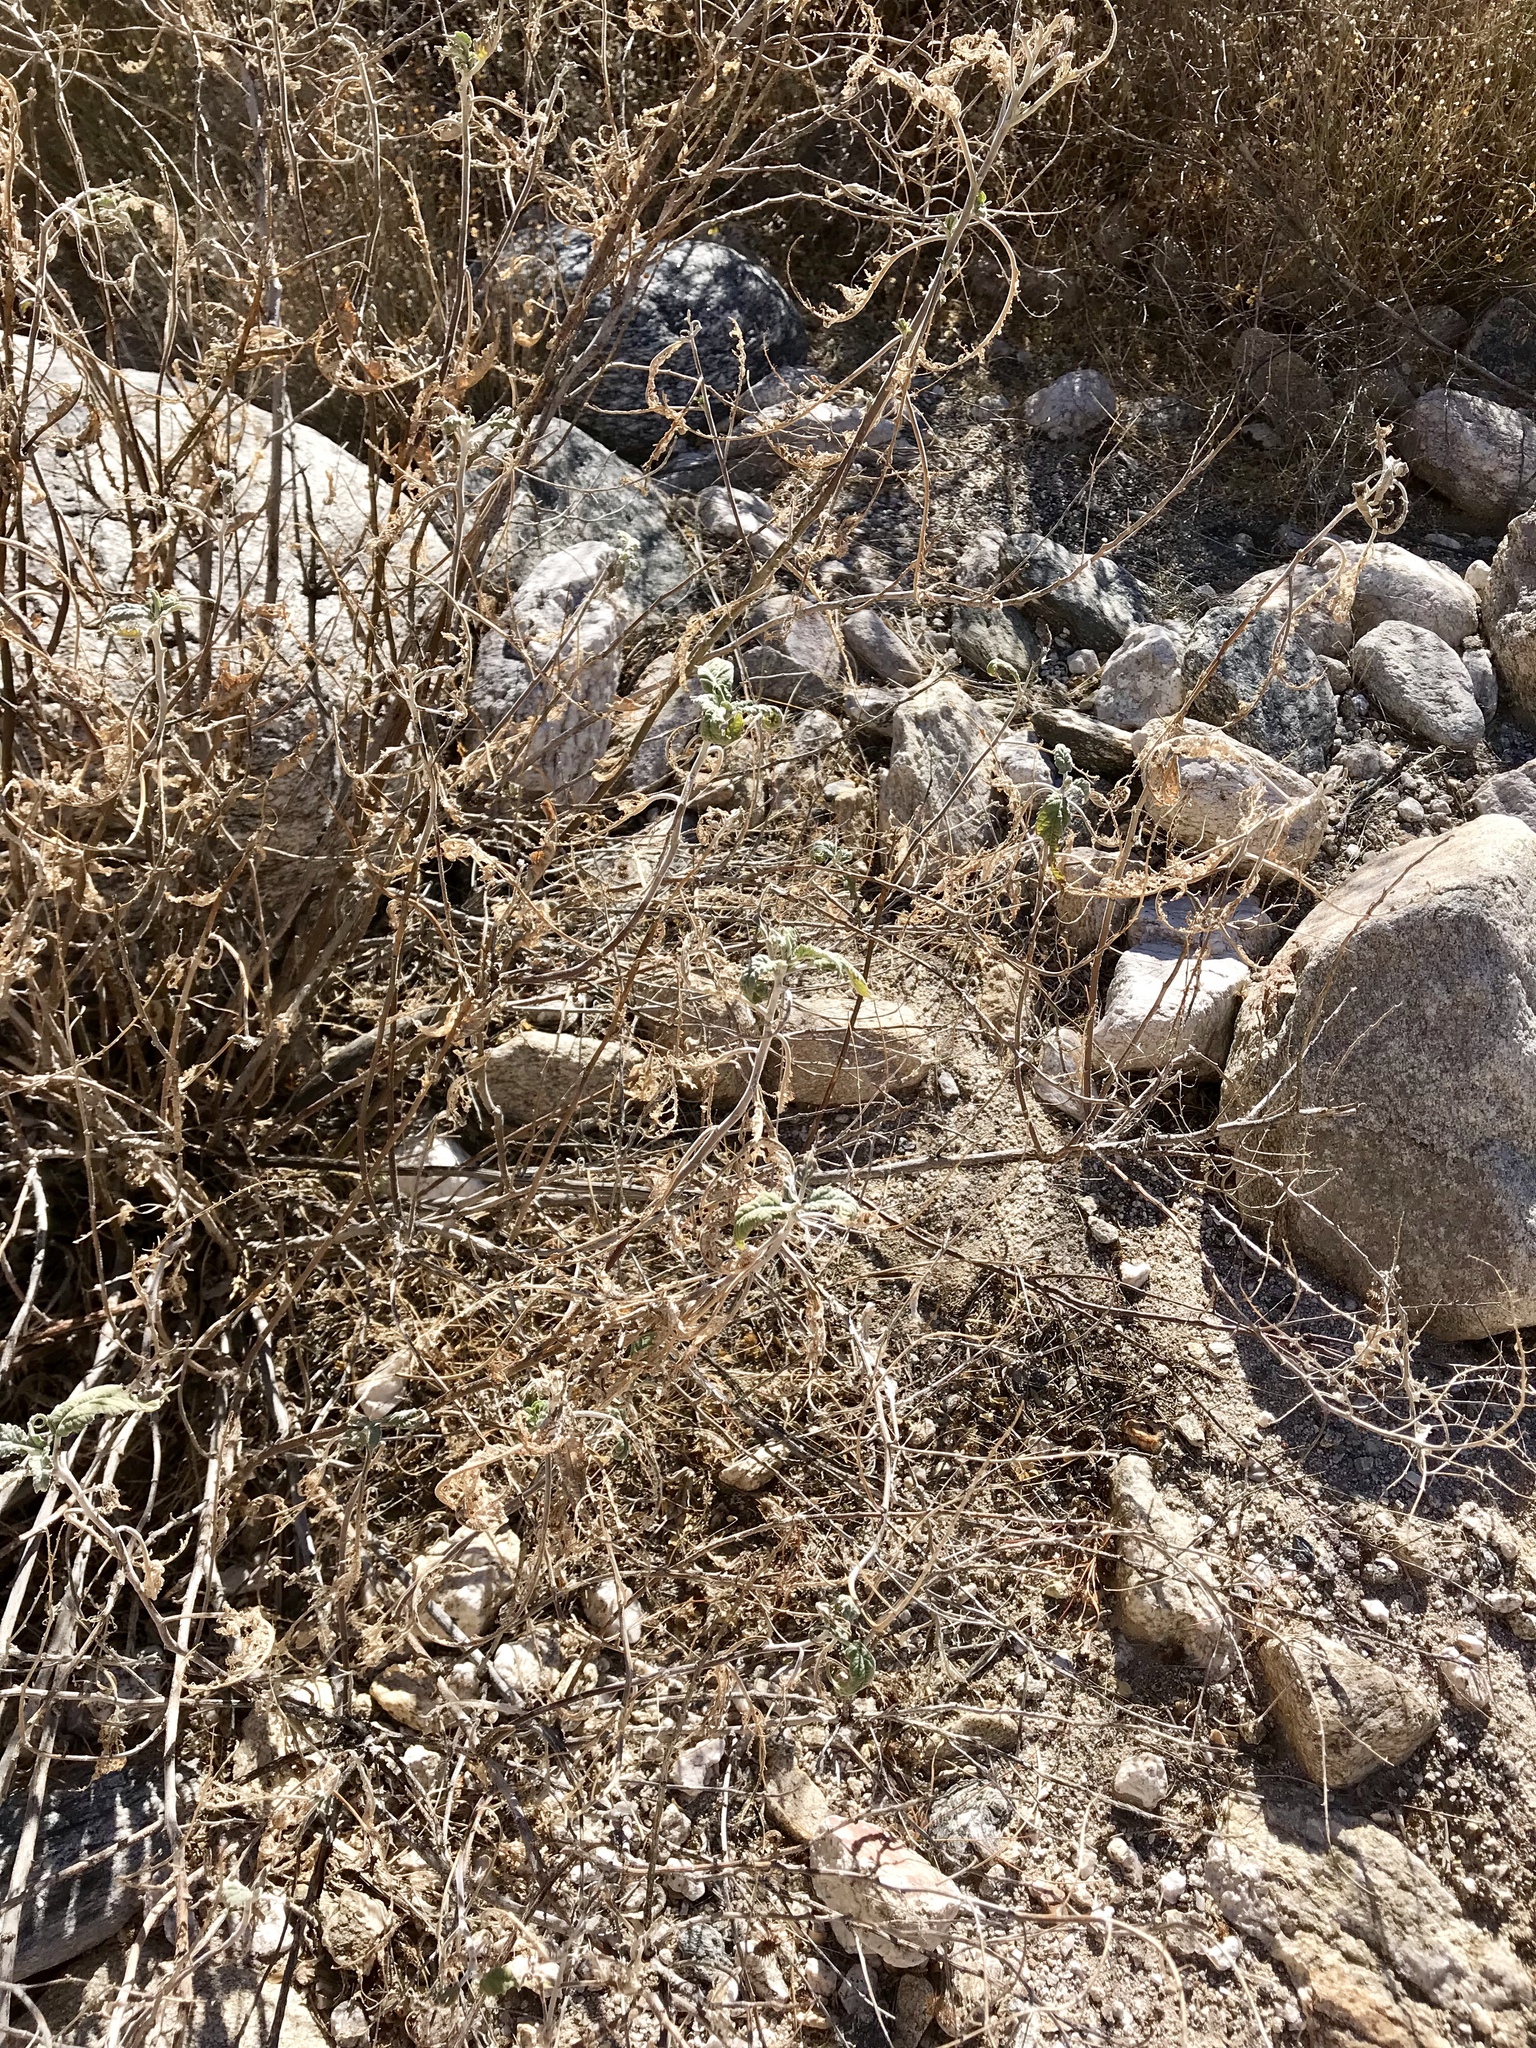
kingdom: Plantae
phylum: Tracheophyta
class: Magnoliopsida
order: Asterales
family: Asteraceae
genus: Ambrosia
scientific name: Ambrosia ambrosioides
